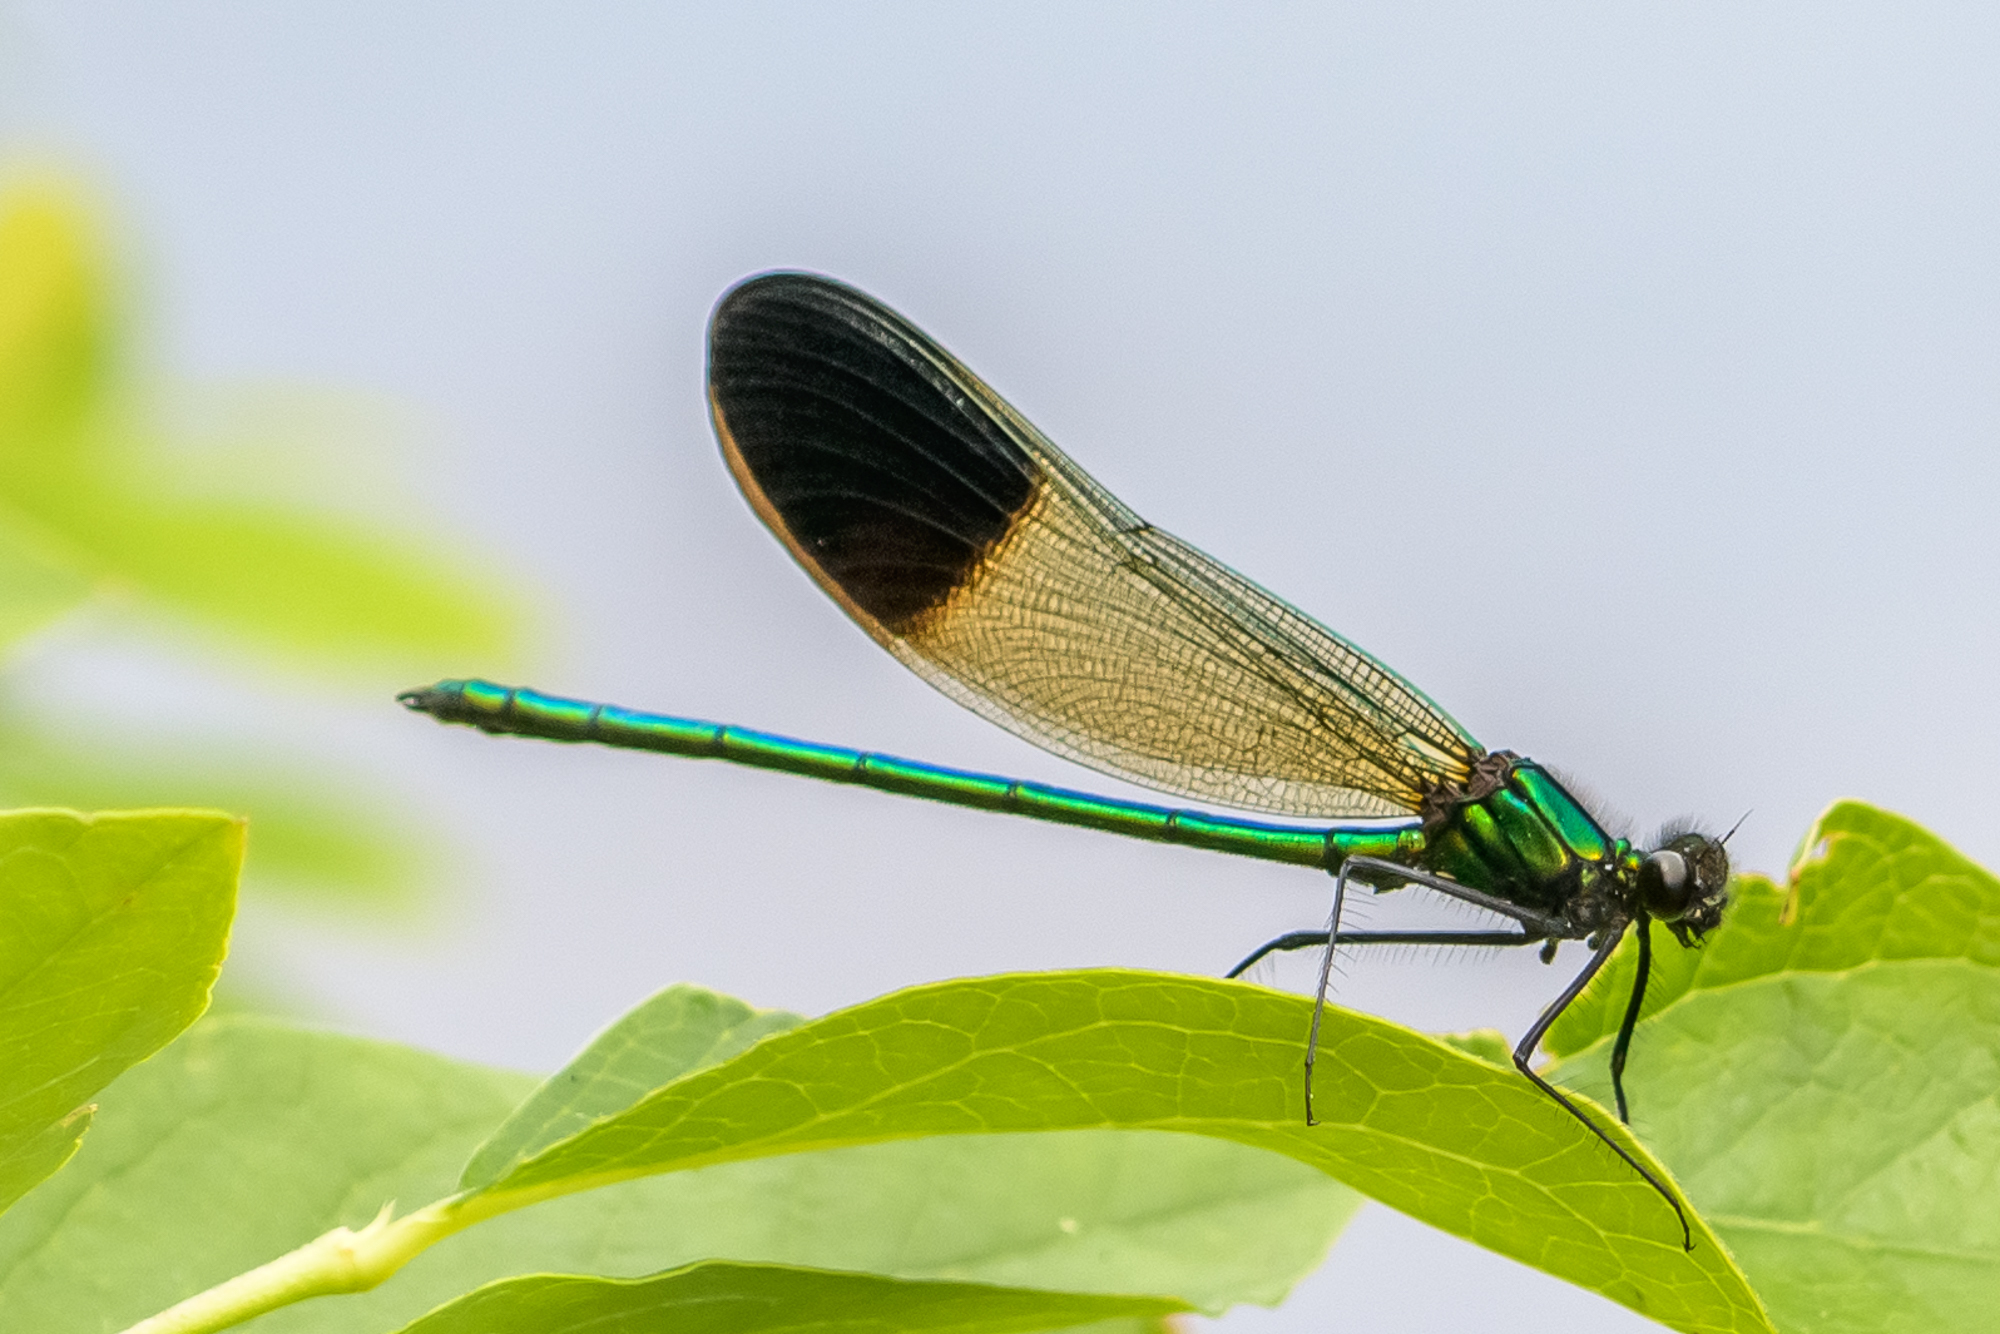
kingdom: Animalia
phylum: Arthropoda
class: Insecta
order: Odonata
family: Calopterygidae
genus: Calopteryx
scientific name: Calopteryx aequabilis
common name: River jewelwing
